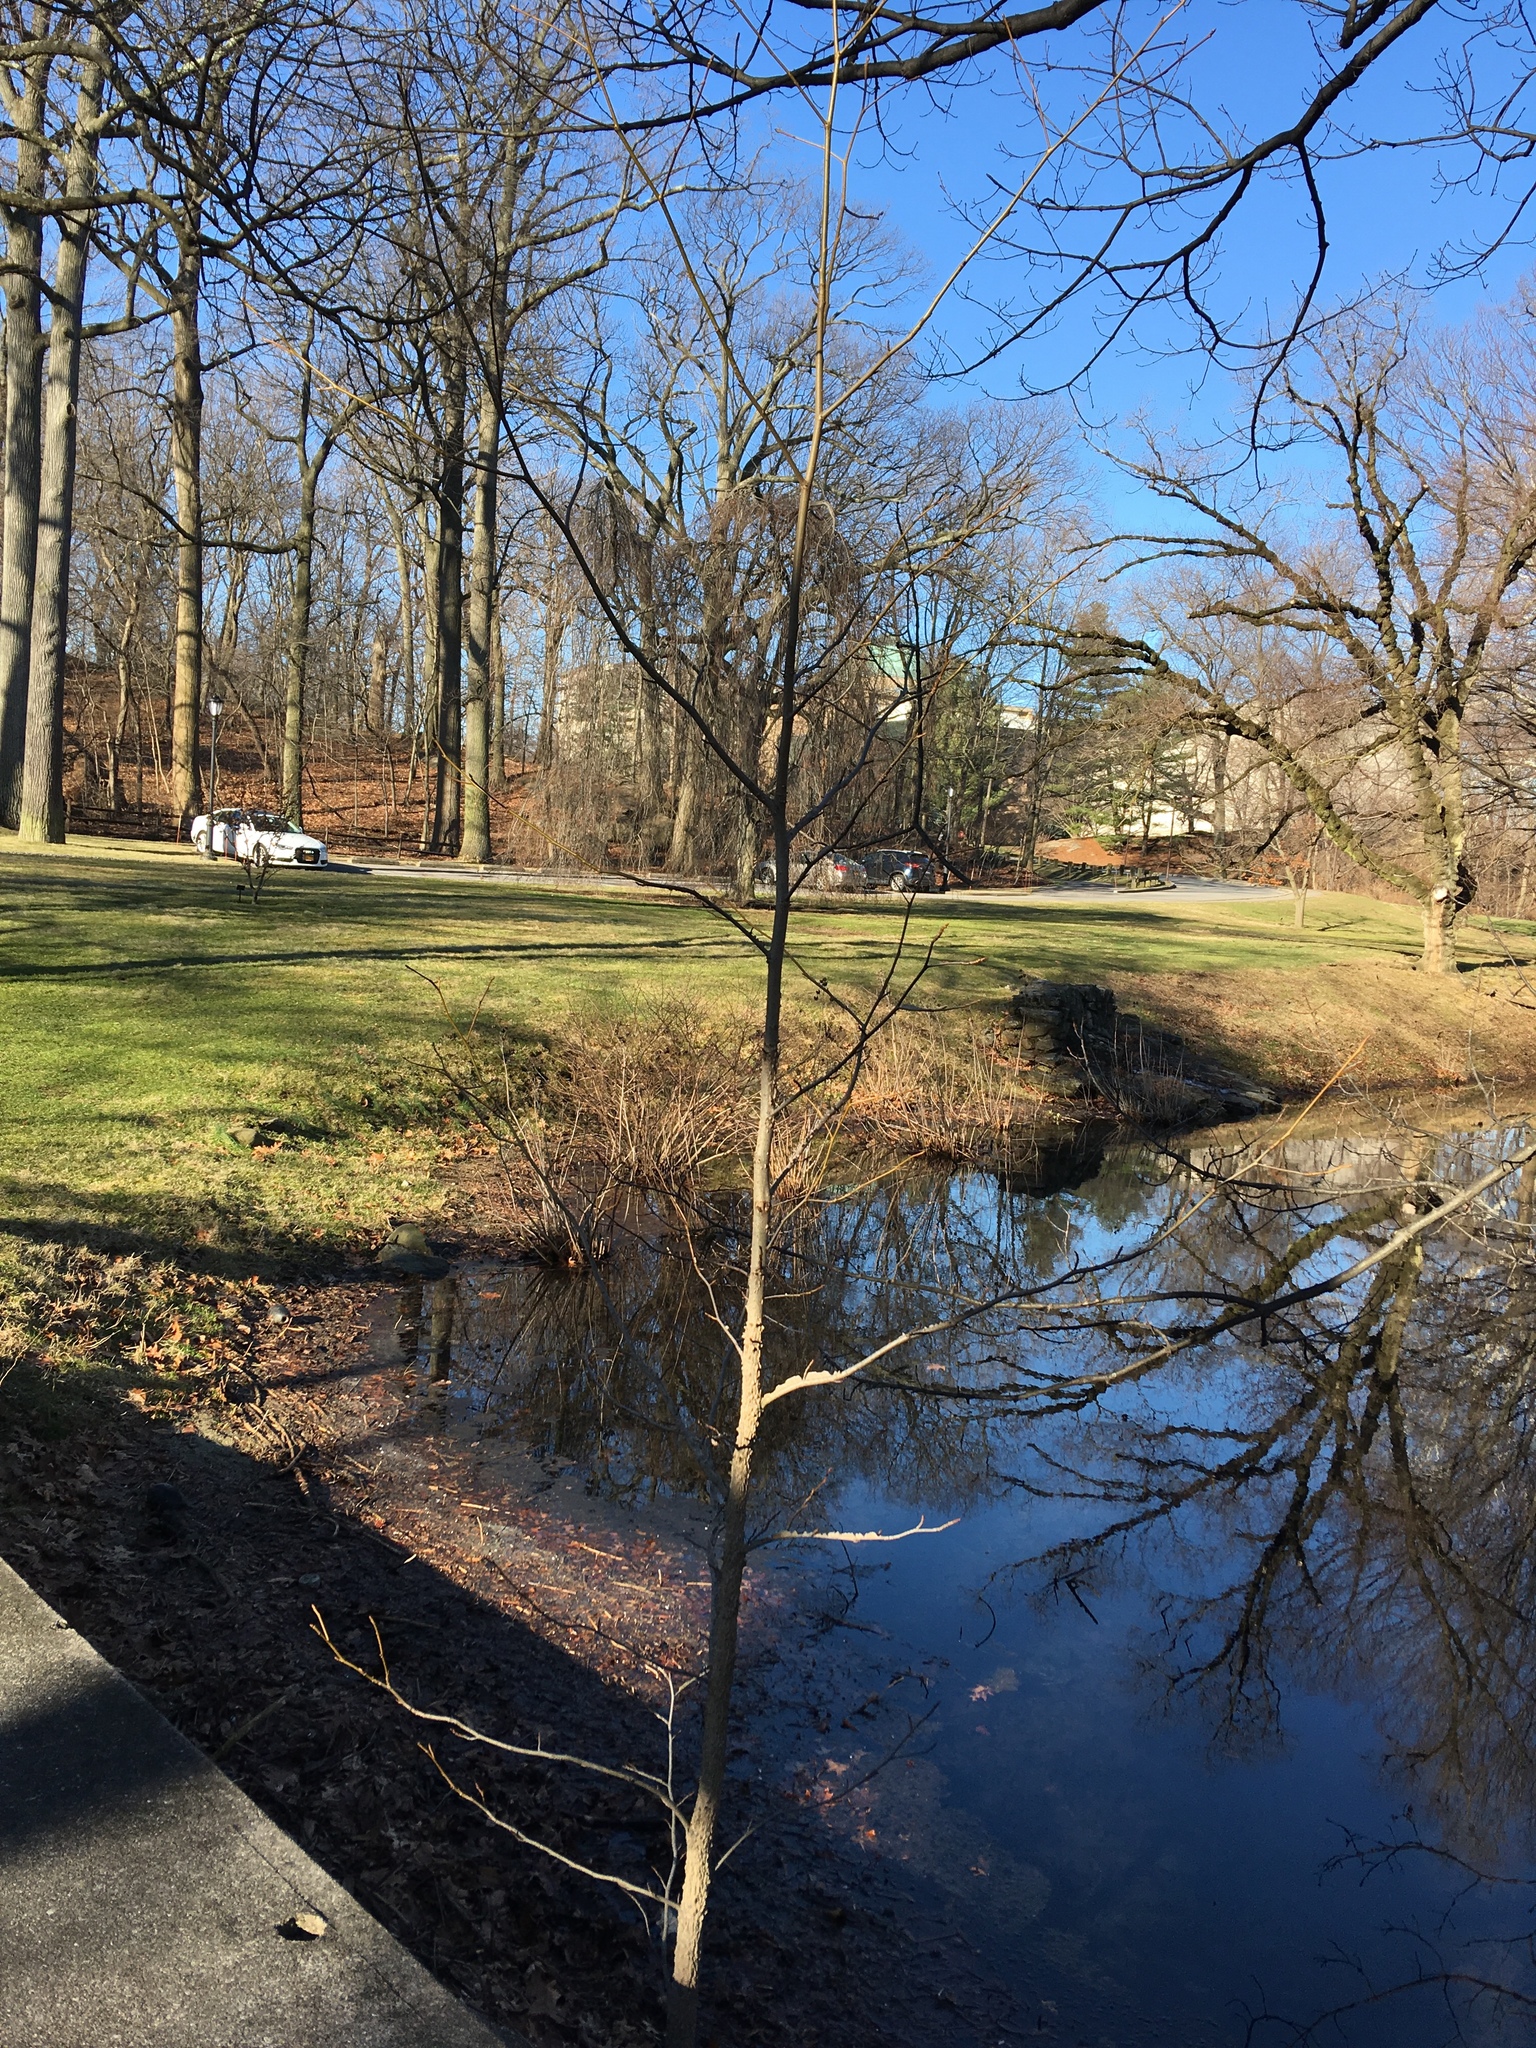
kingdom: Plantae
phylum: Tracheophyta
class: Magnoliopsida
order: Saxifragales
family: Altingiaceae
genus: Liquidambar
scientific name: Liquidambar styraciflua
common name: Sweet gum
